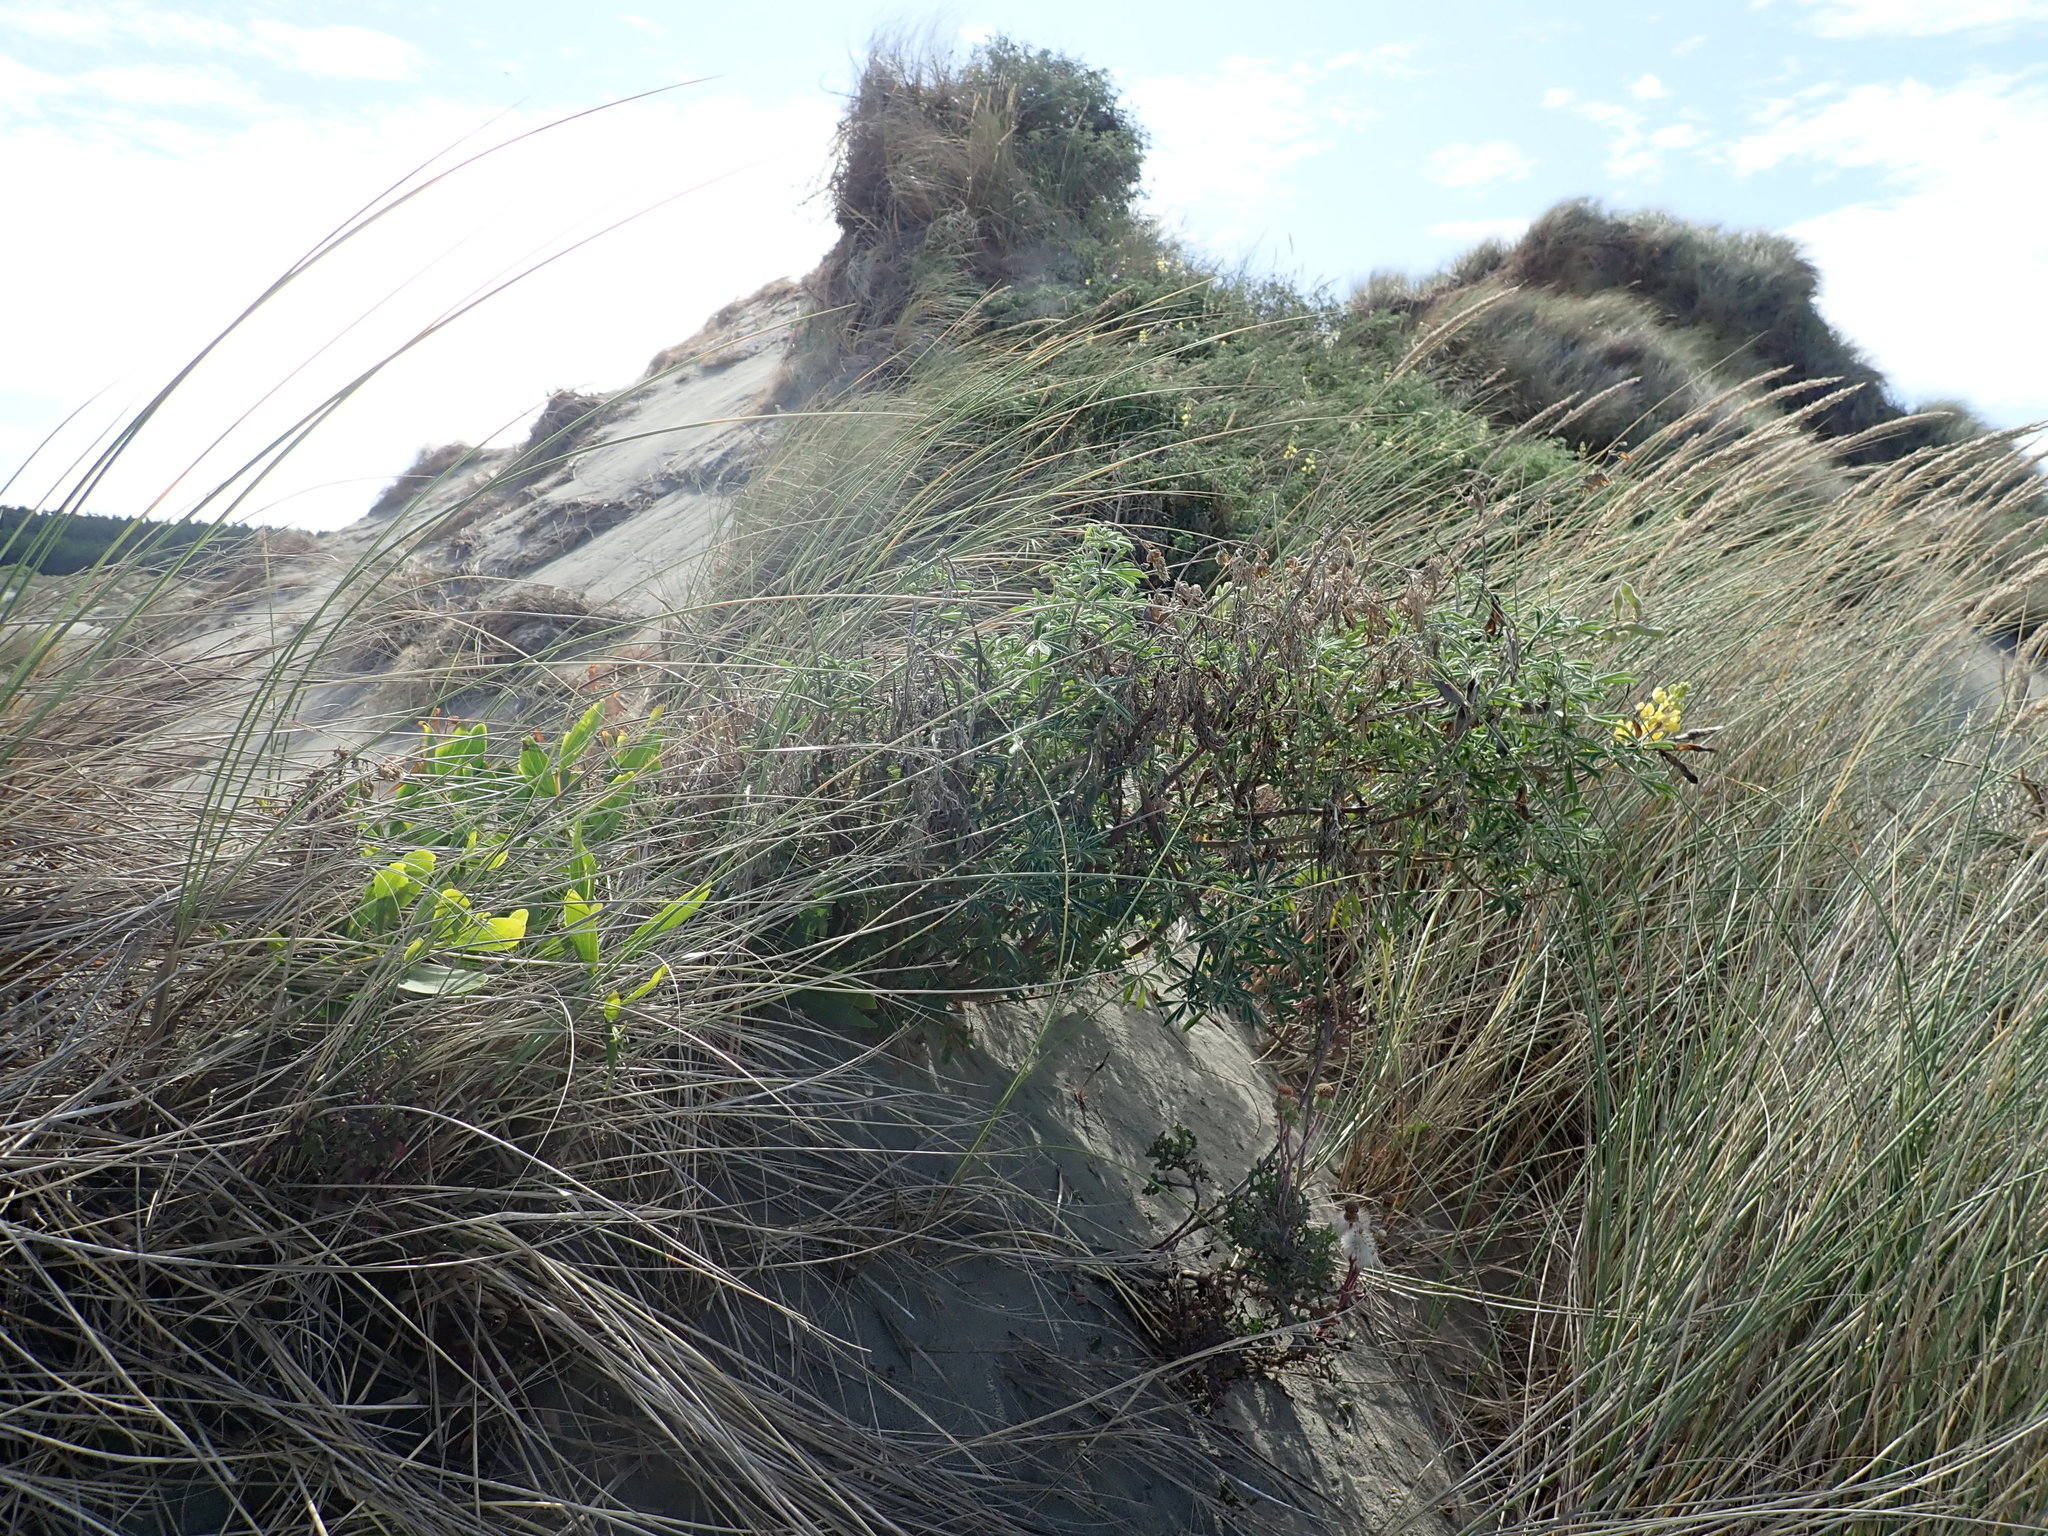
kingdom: Plantae
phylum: Tracheophyta
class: Magnoliopsida
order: Fabales
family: Fabaceae
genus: Acacia
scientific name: Acacia longifolia
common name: Sydney golden wattle
